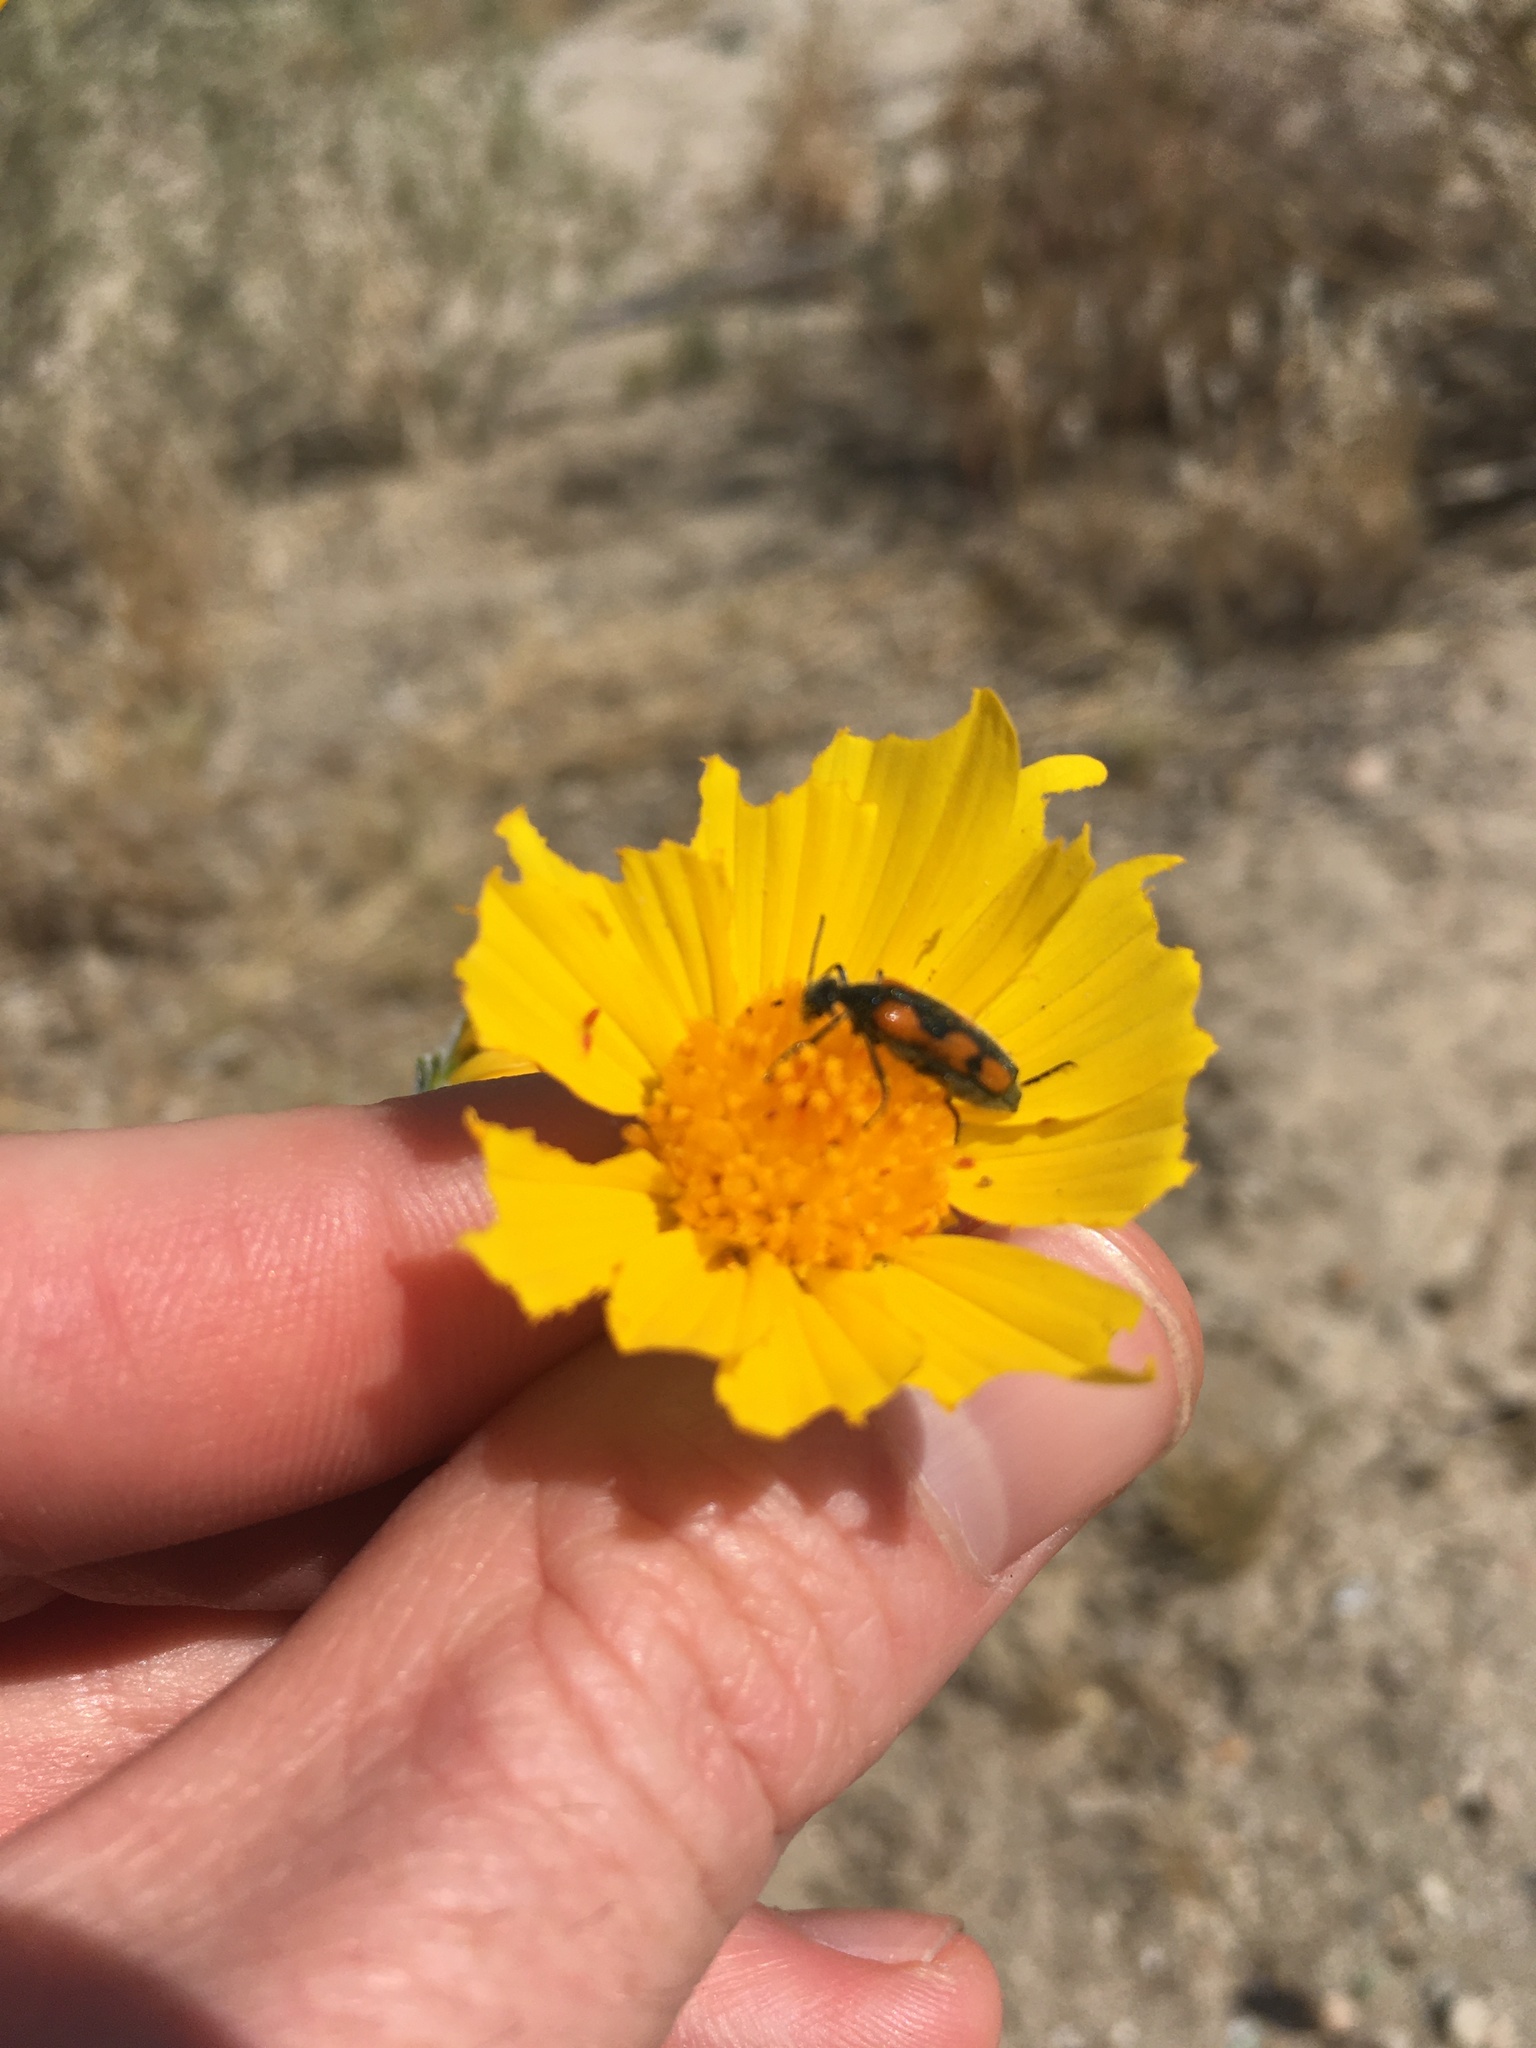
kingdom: Animalia
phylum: Arthropoda
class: Insecta
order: Coleoptera
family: Meloidae
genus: Eupompha
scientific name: Eupompha elegans
